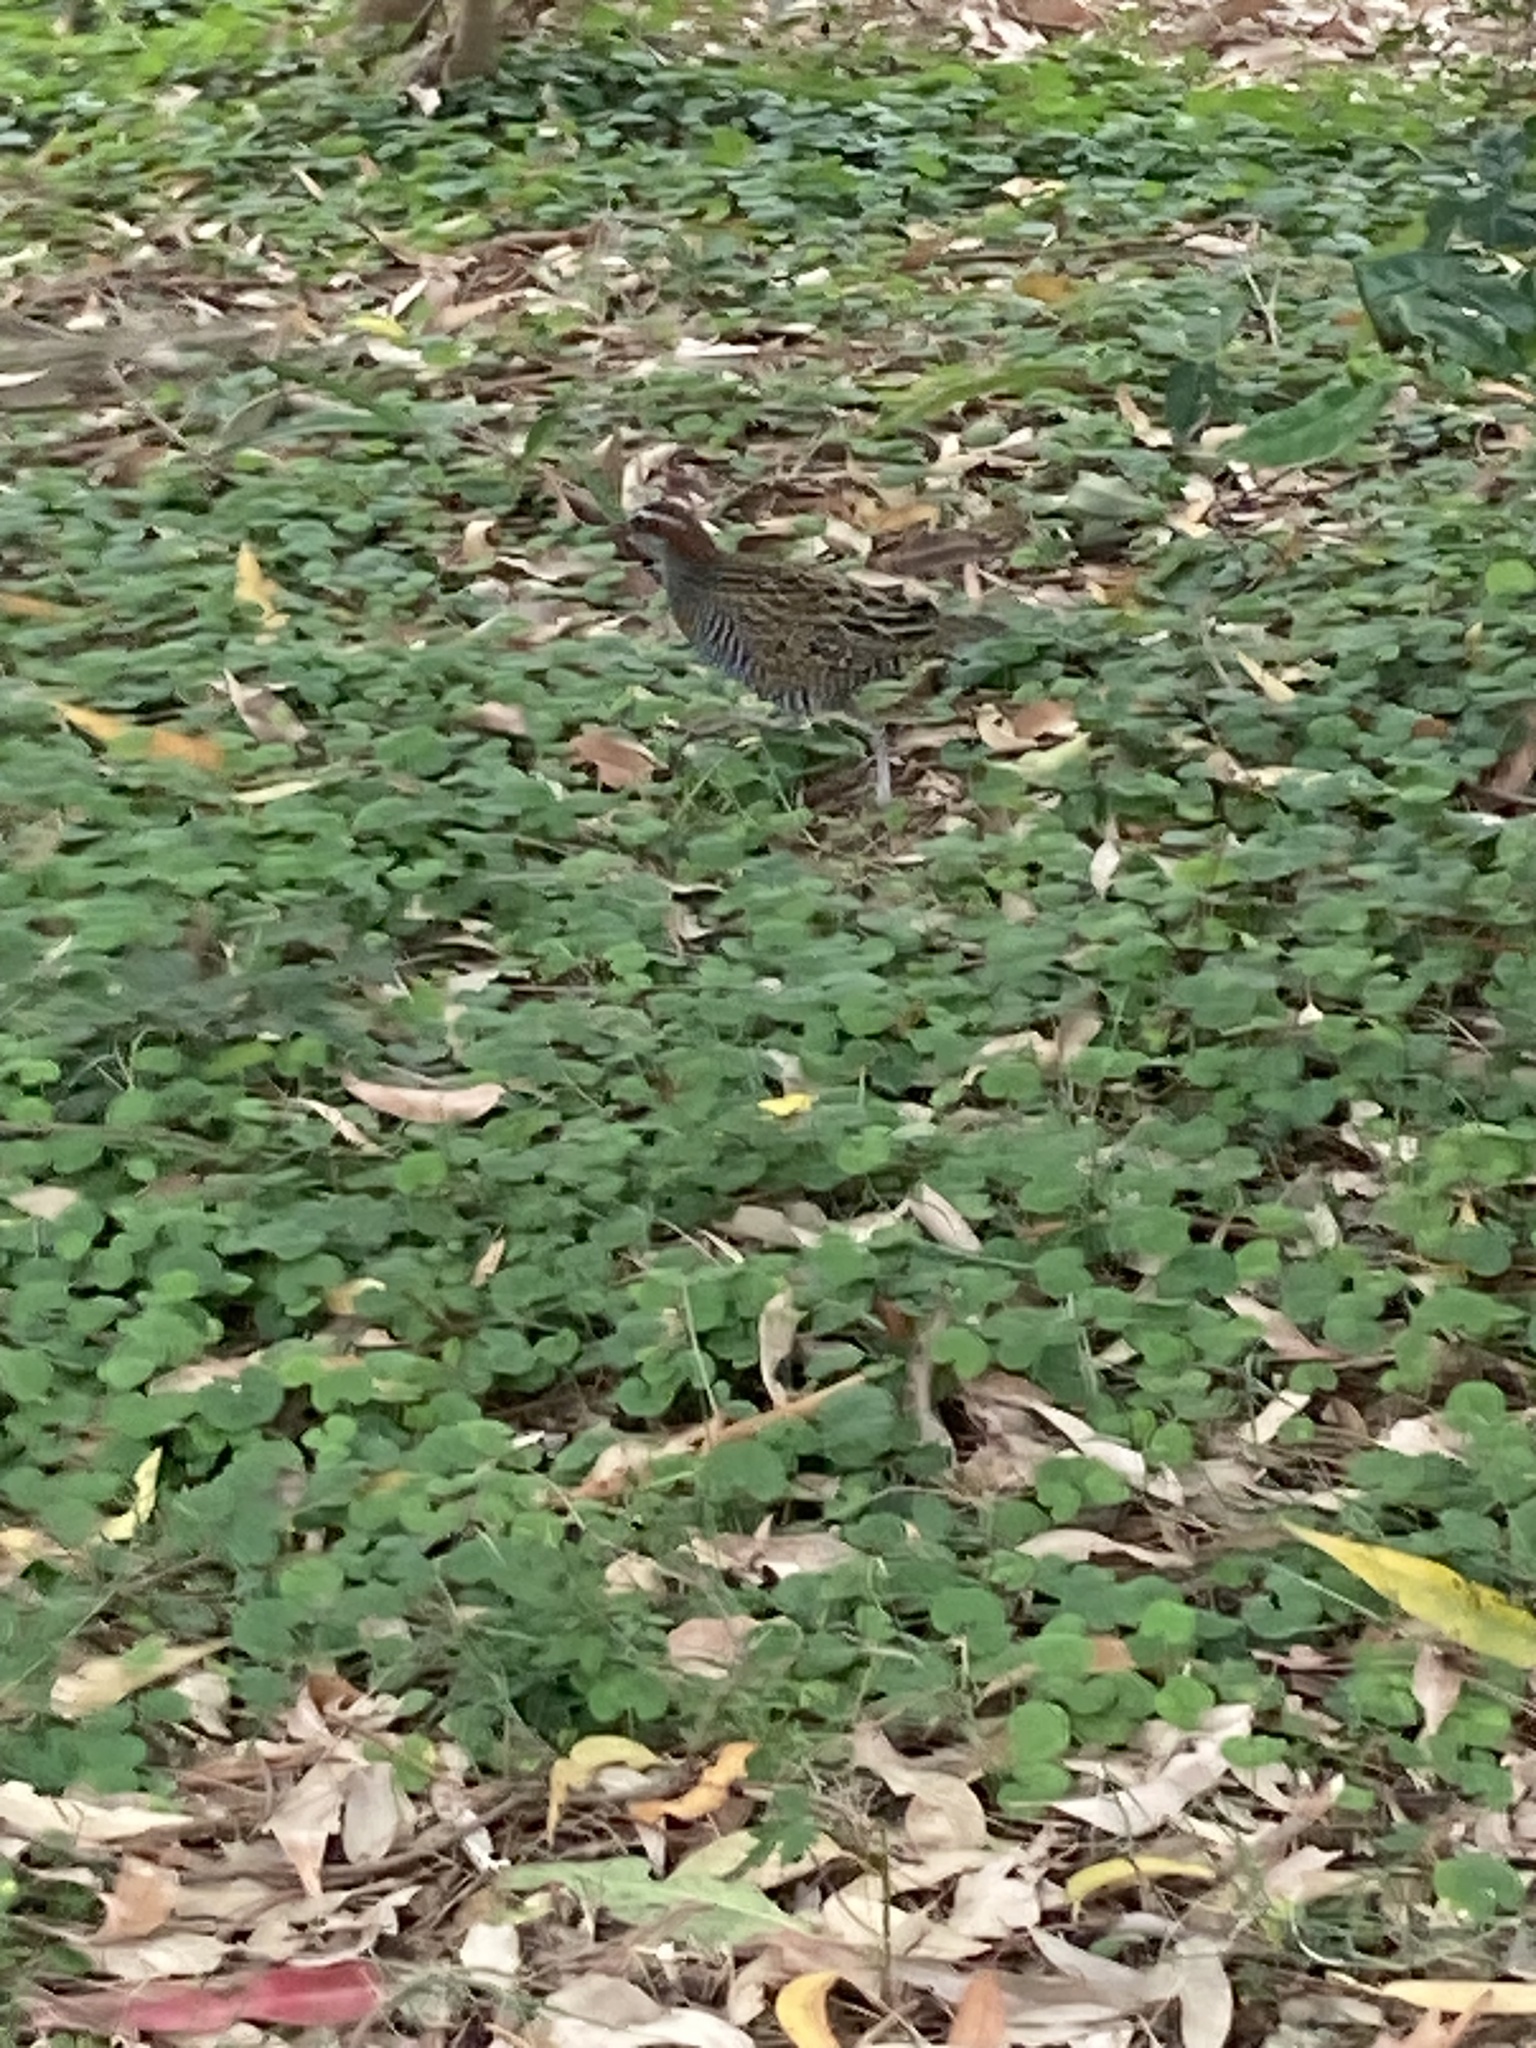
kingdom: Animalia
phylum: Chordata
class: Aves
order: Gruiformes
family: Rallidae
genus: Gallirallus
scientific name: Gallirallus philippensis
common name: Buff-banded rail
